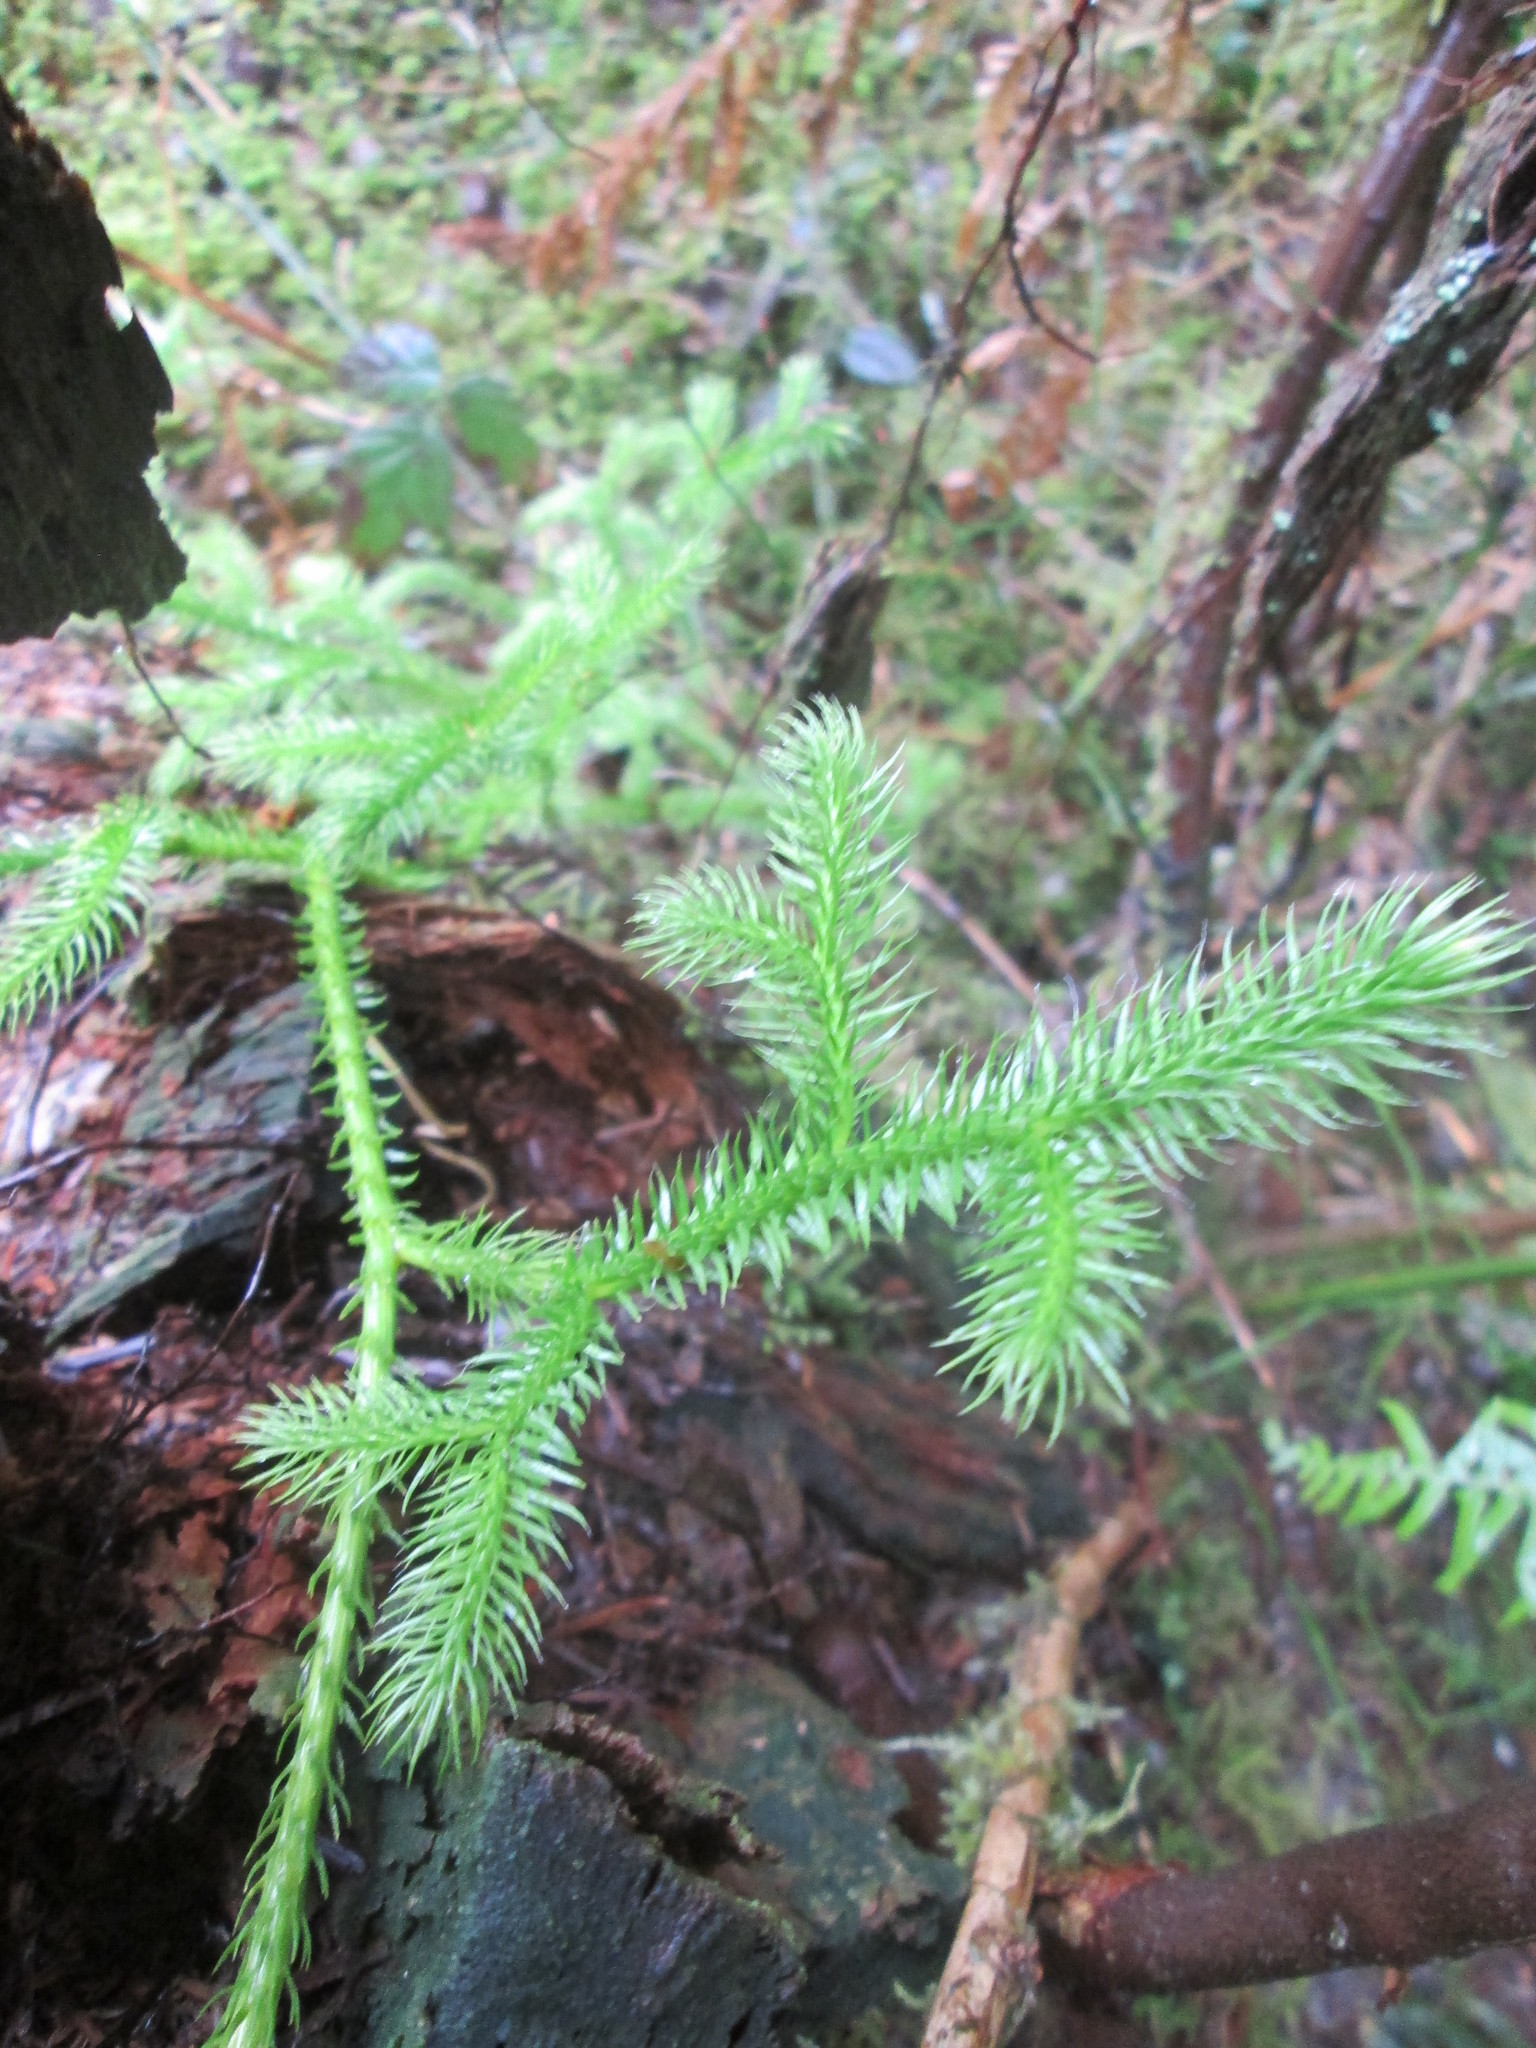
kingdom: Plantae
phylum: Tracheophyta
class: Lycopodiopsida
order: Lycopodiales
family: Lycopodiaceae
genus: Lycopodium
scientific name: Lycopodium clavatum
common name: Stag's-horn clubmoss
